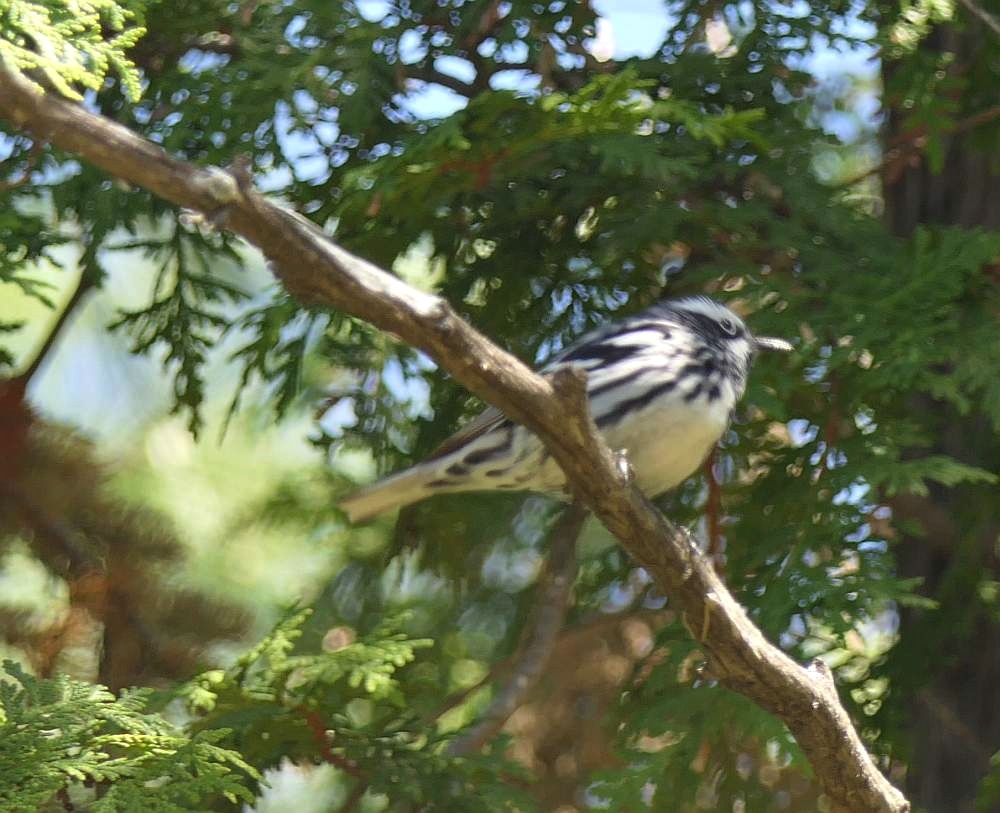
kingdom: Animalia
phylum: Chordata
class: Aves
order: Passeriformes
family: Parulidae
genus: Mniotilta
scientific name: Mniotilta varia
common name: Black-and-white warbler
